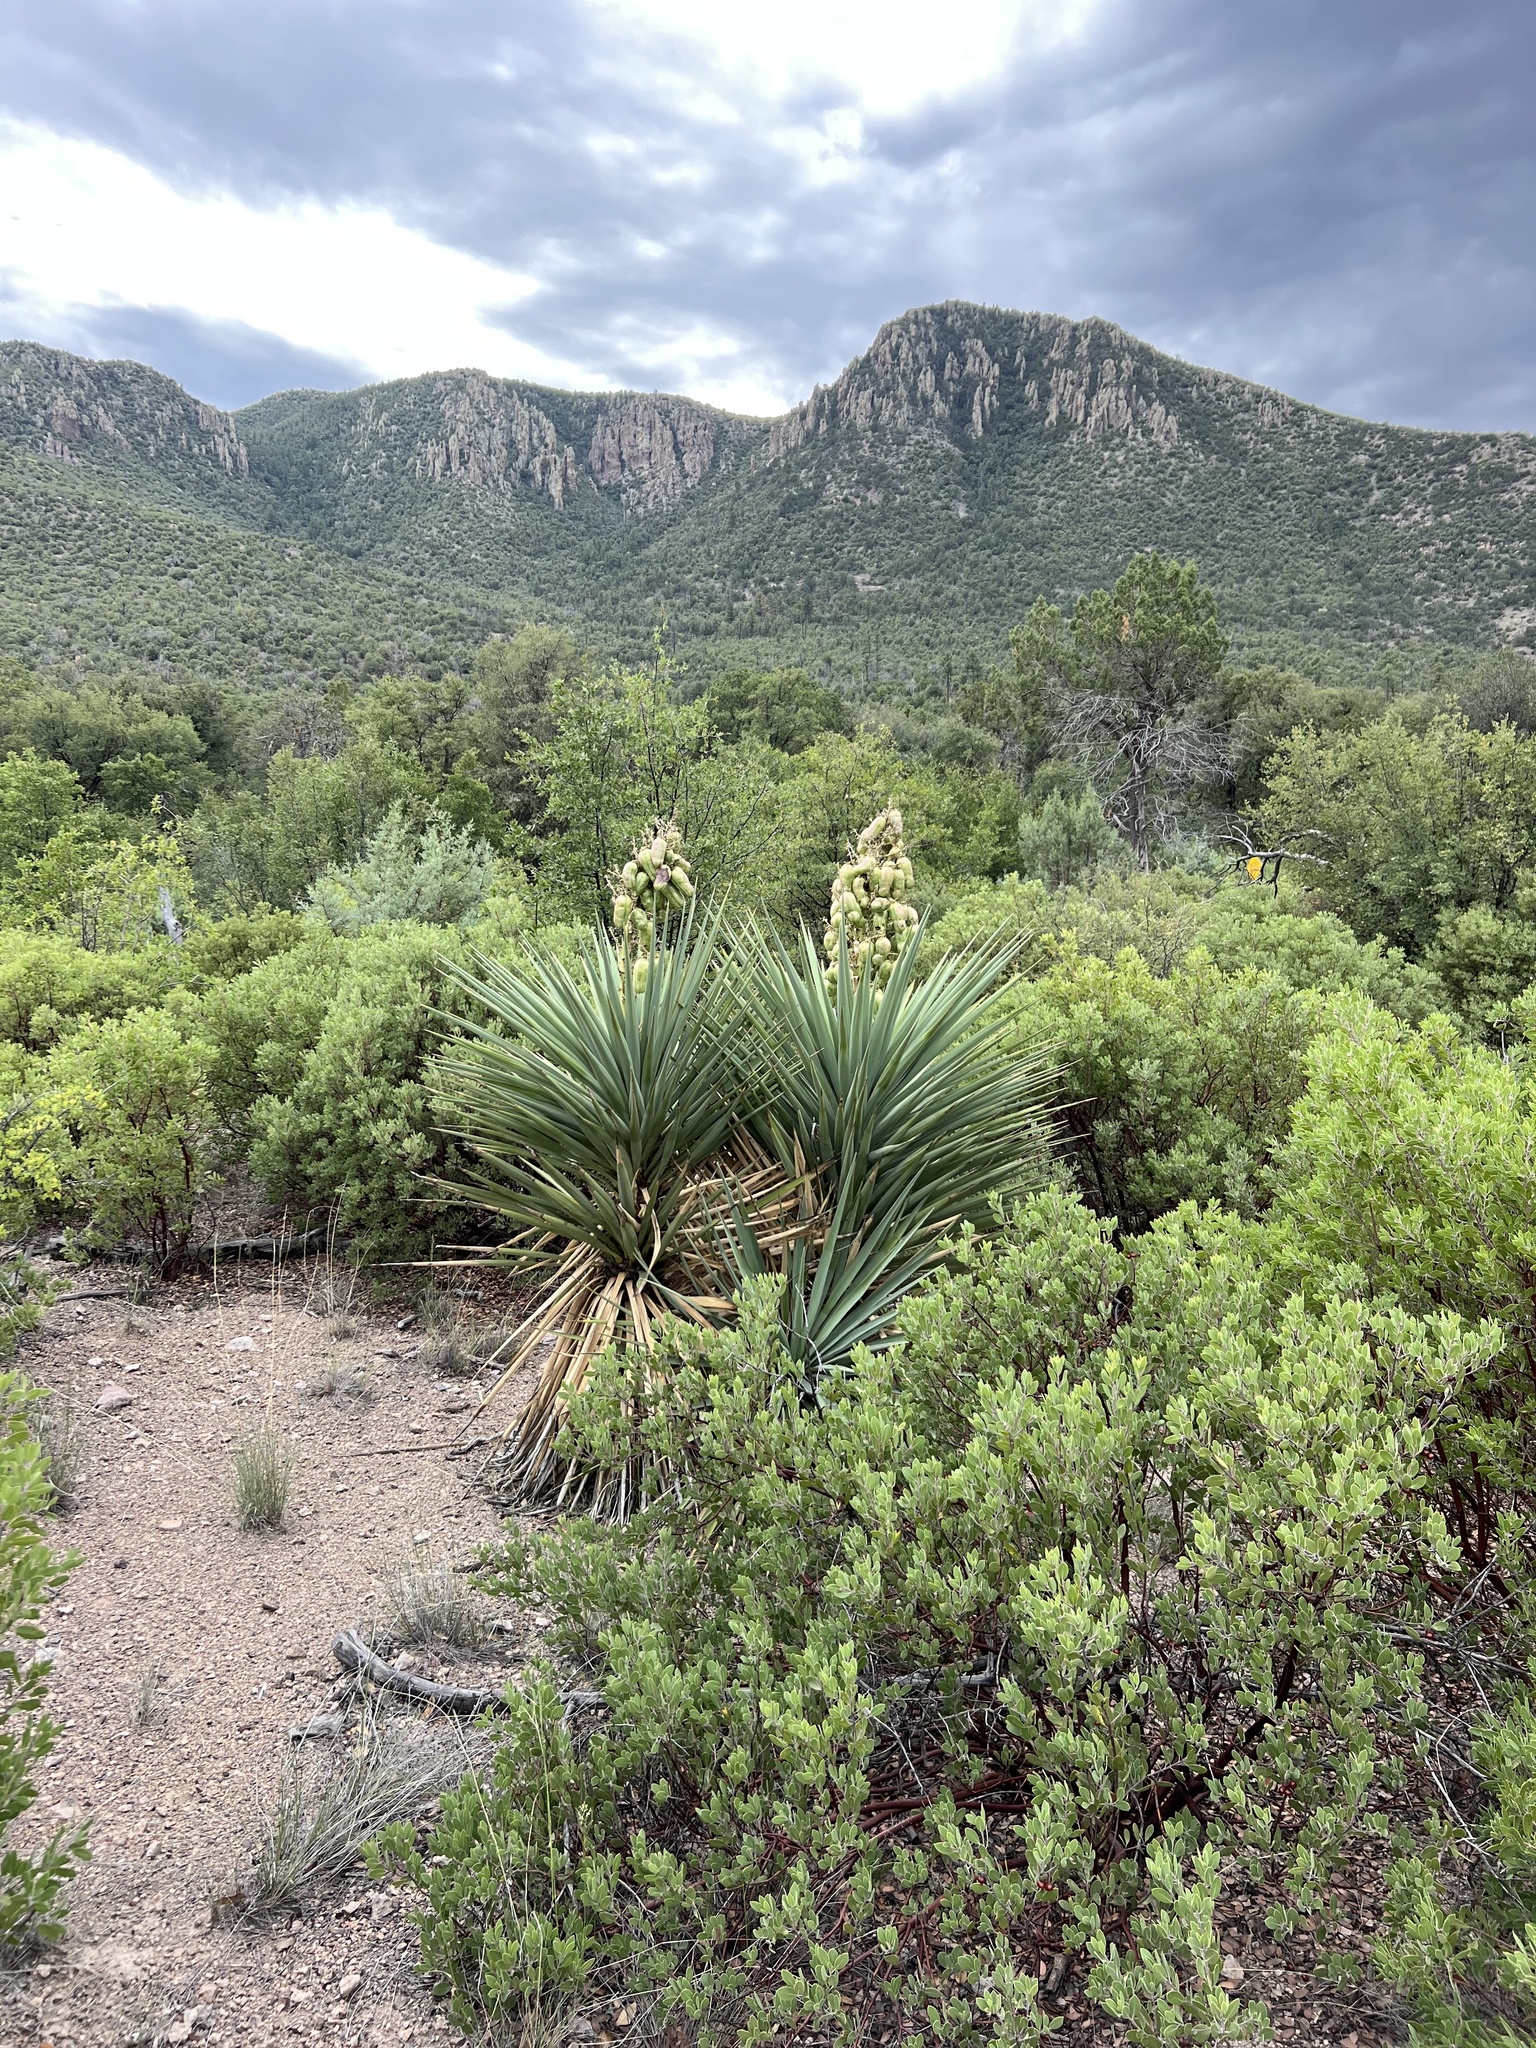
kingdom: Plantae
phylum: Tracheophyta
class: Liliopsida
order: Asparagales
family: Asparagaceae
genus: Yucca
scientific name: Yucca schottii
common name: Hoary yucca
